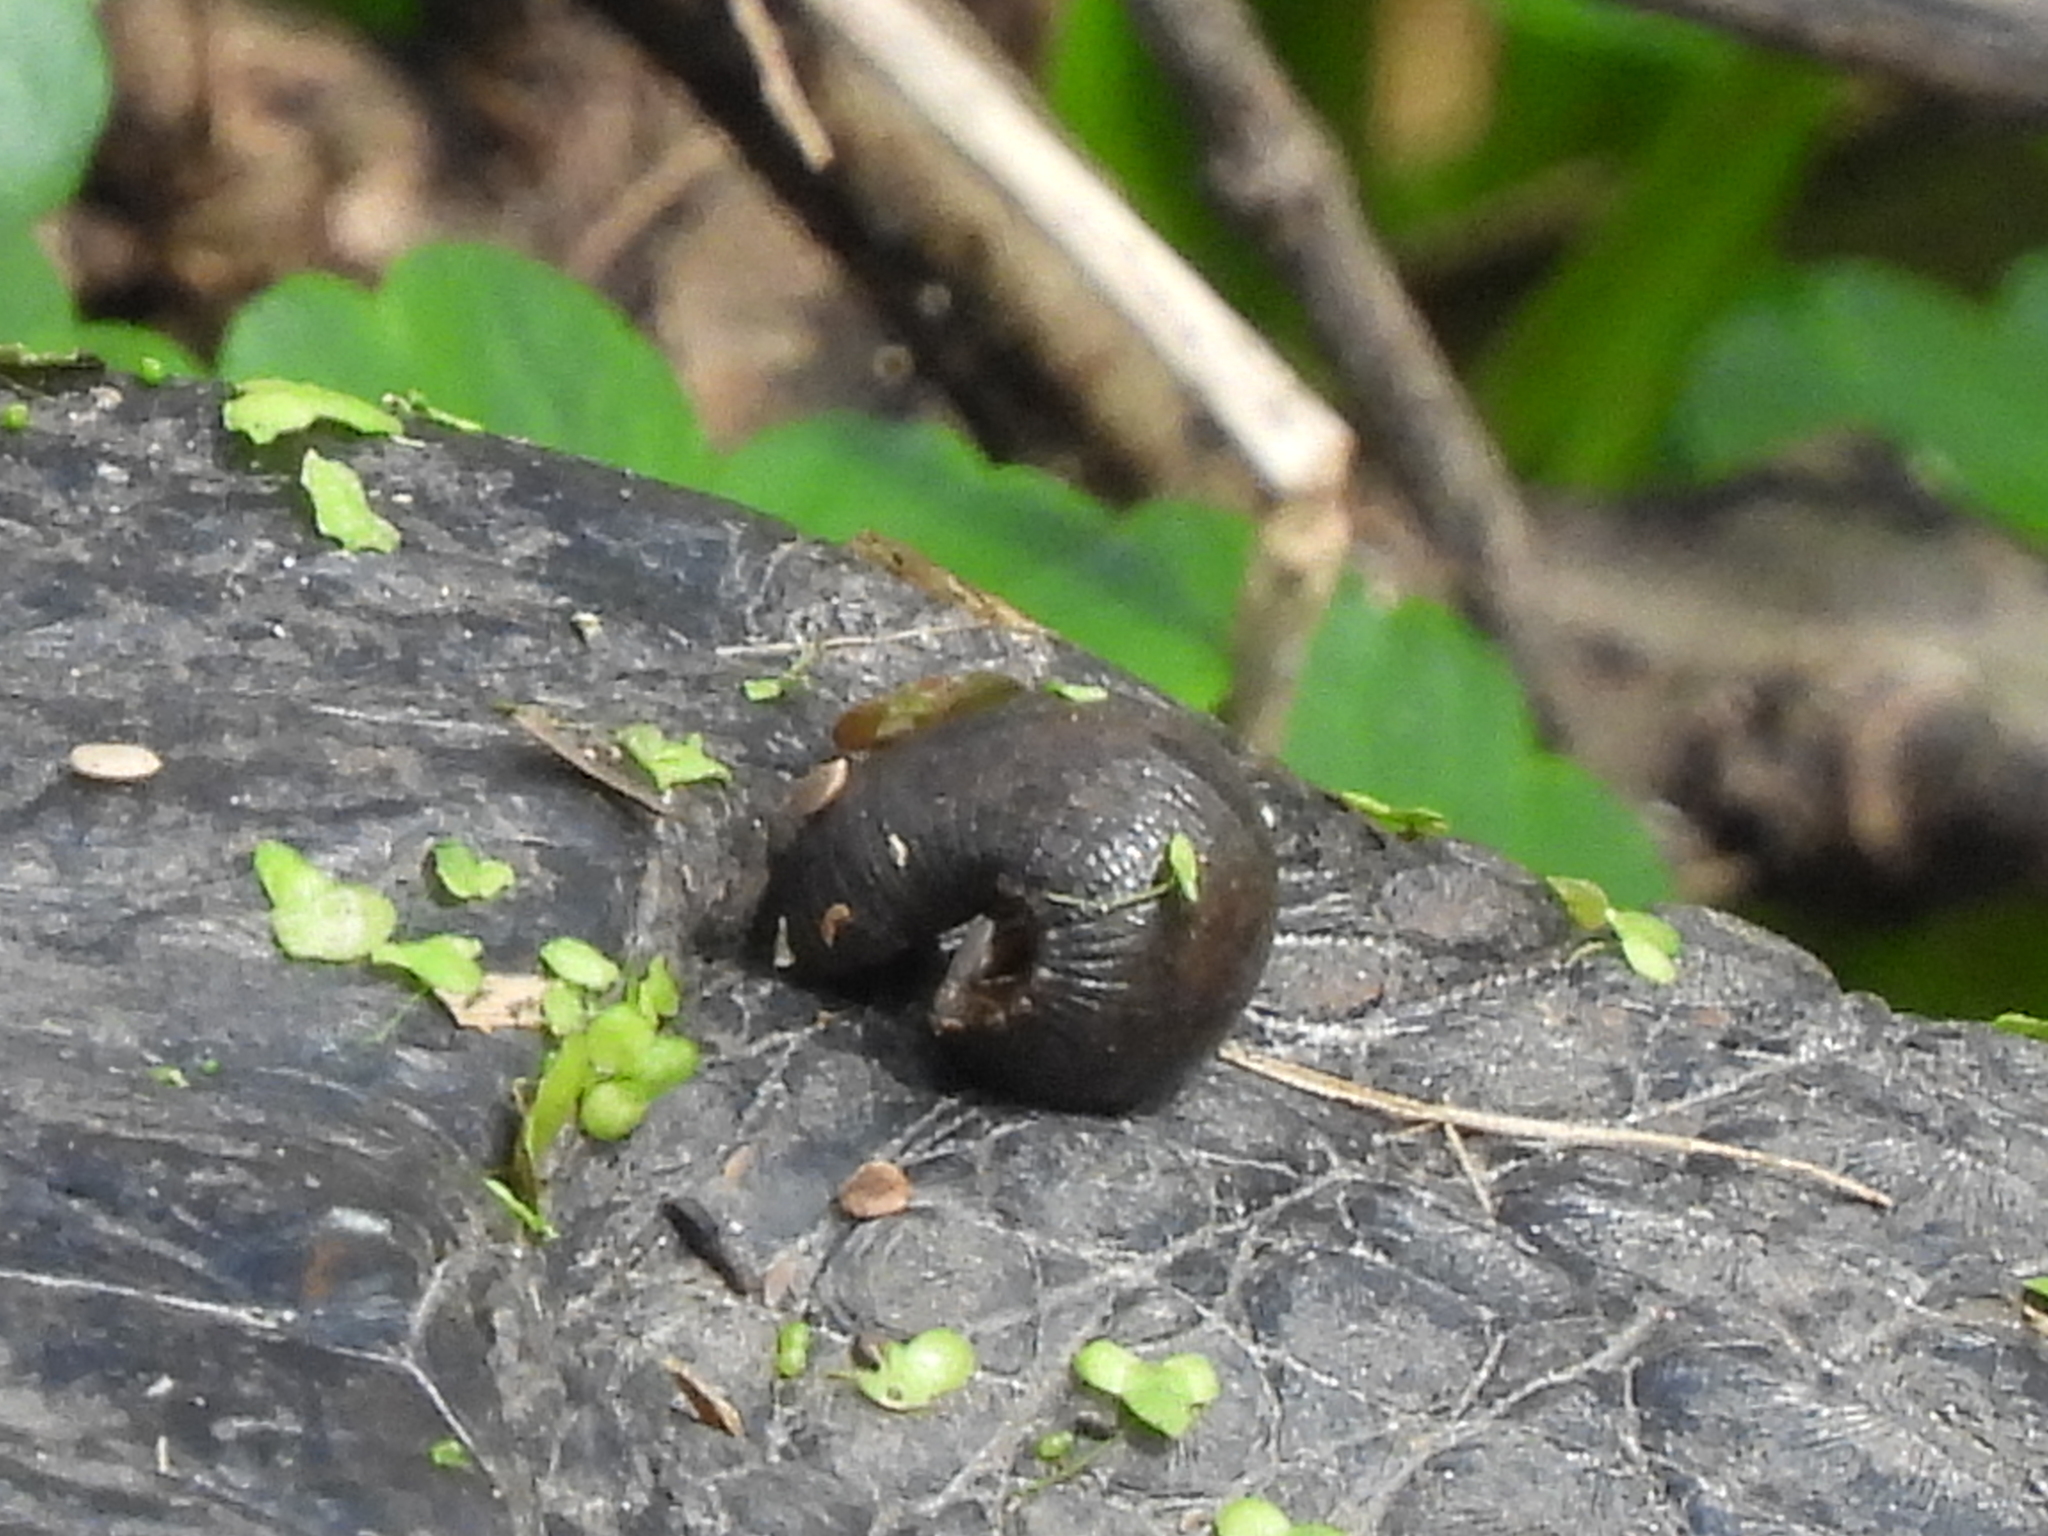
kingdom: Animalia
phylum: Chordata
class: Crocodylia
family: Alligatoridae
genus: Alligator
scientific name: Alligator mississippiensis
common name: American alligator
